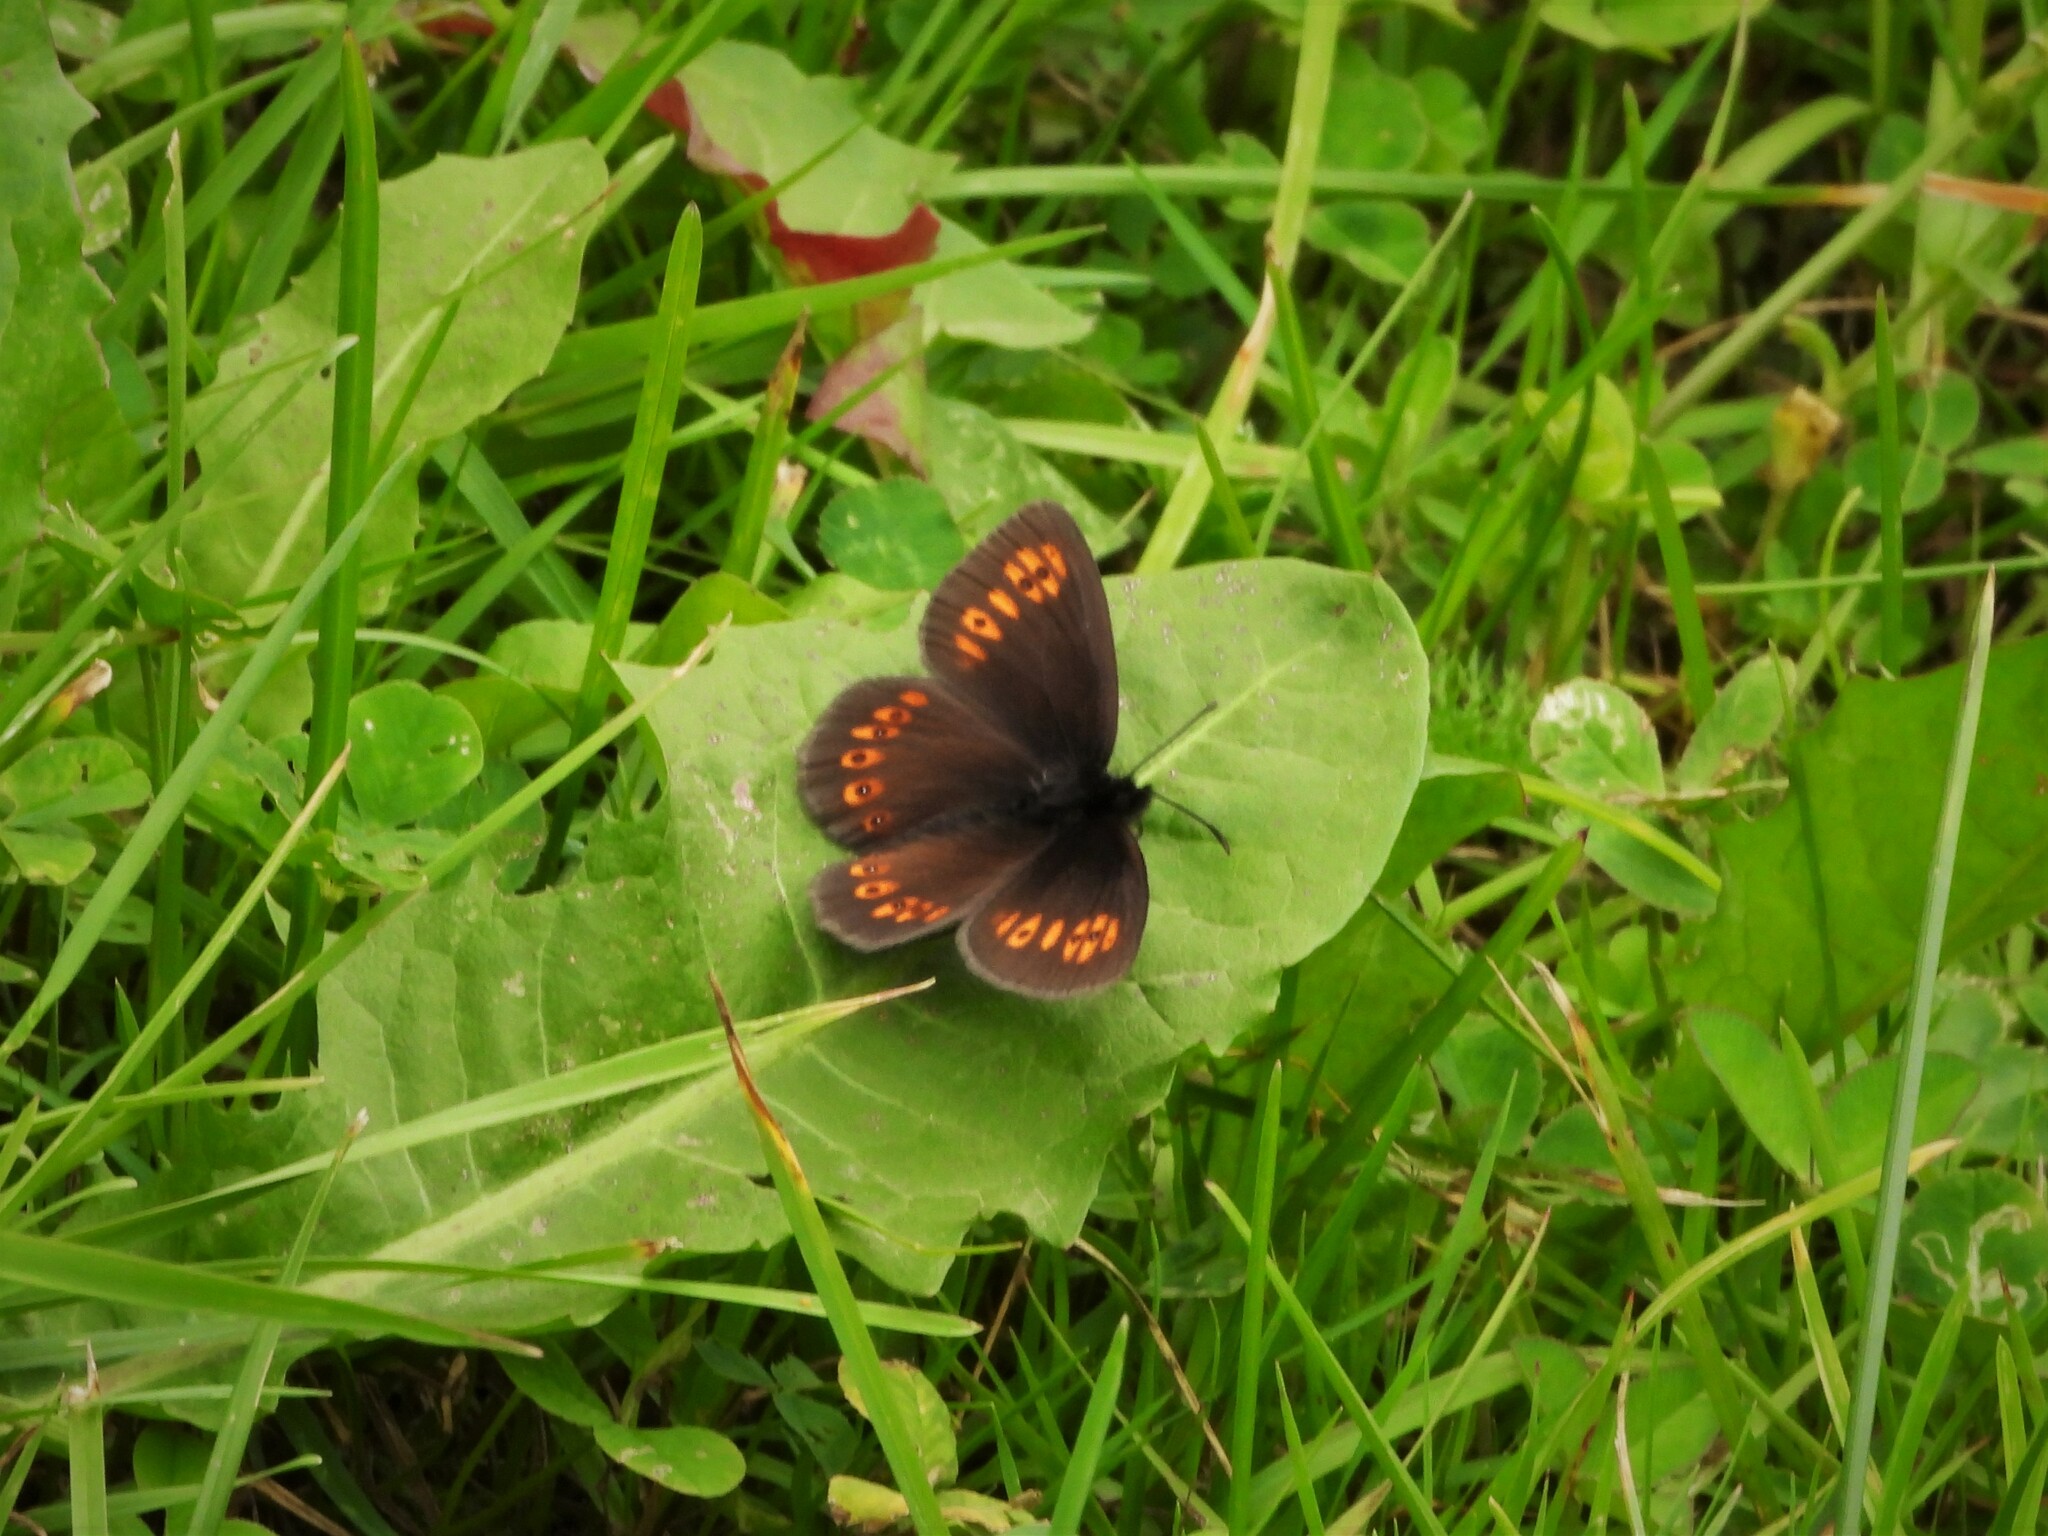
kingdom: Animalia
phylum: Arthropoda
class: Insecta
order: Lepidoptera
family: Nymphalidae
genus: Erebia
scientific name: Erebia alberganus
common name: Almond-eyed ringlet
